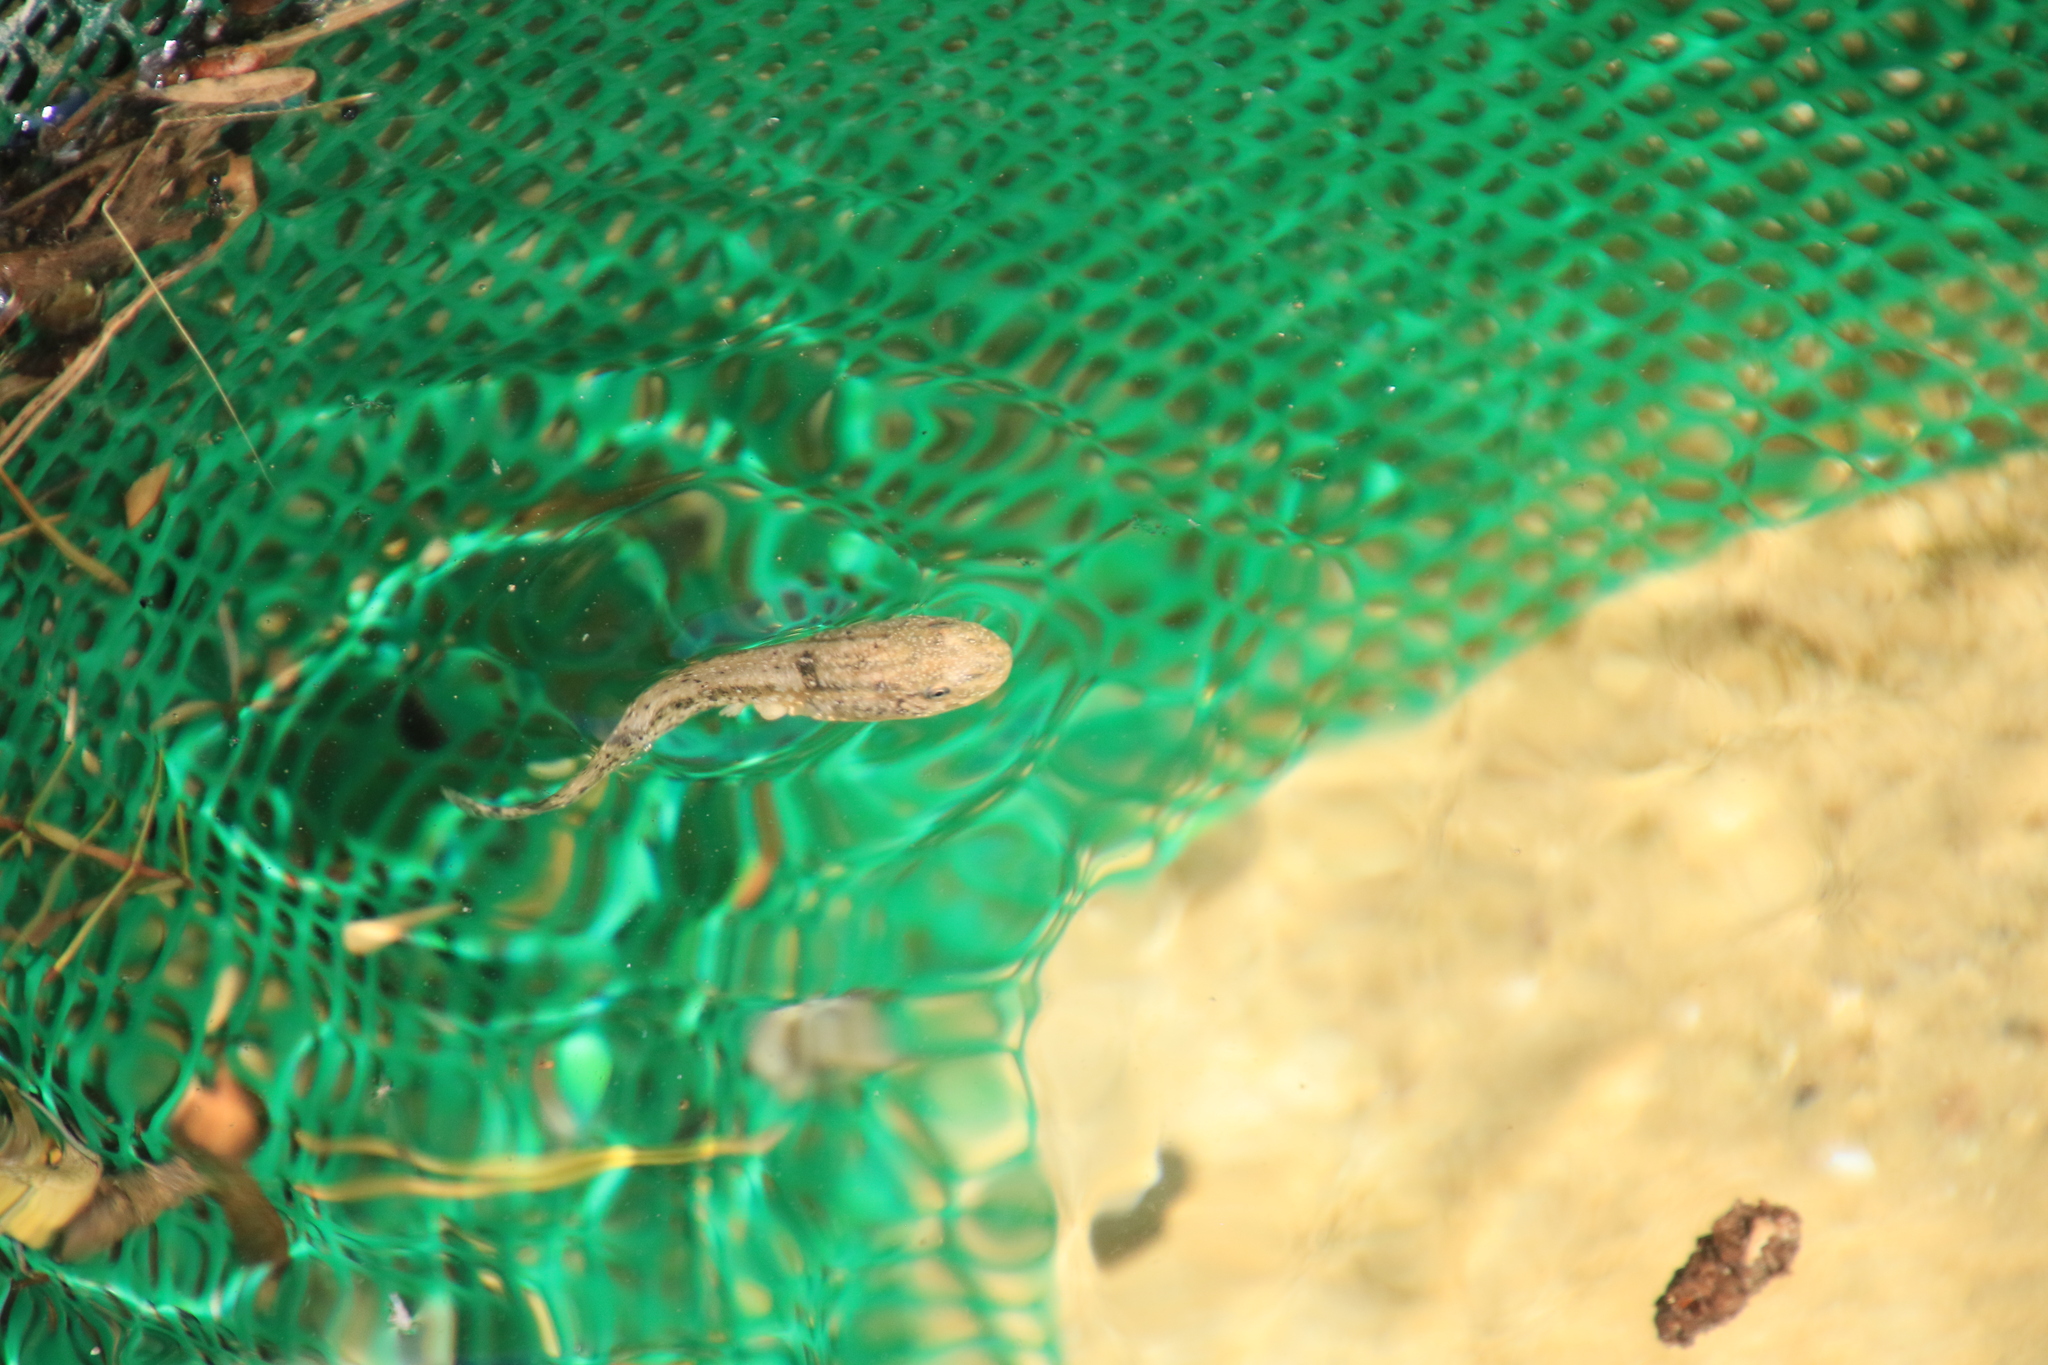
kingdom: Animalia
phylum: Chordata
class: Amphibia
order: Anura
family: Alytidae
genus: Alytes
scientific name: Alytes dickhilleni
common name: Betic midwife toad
